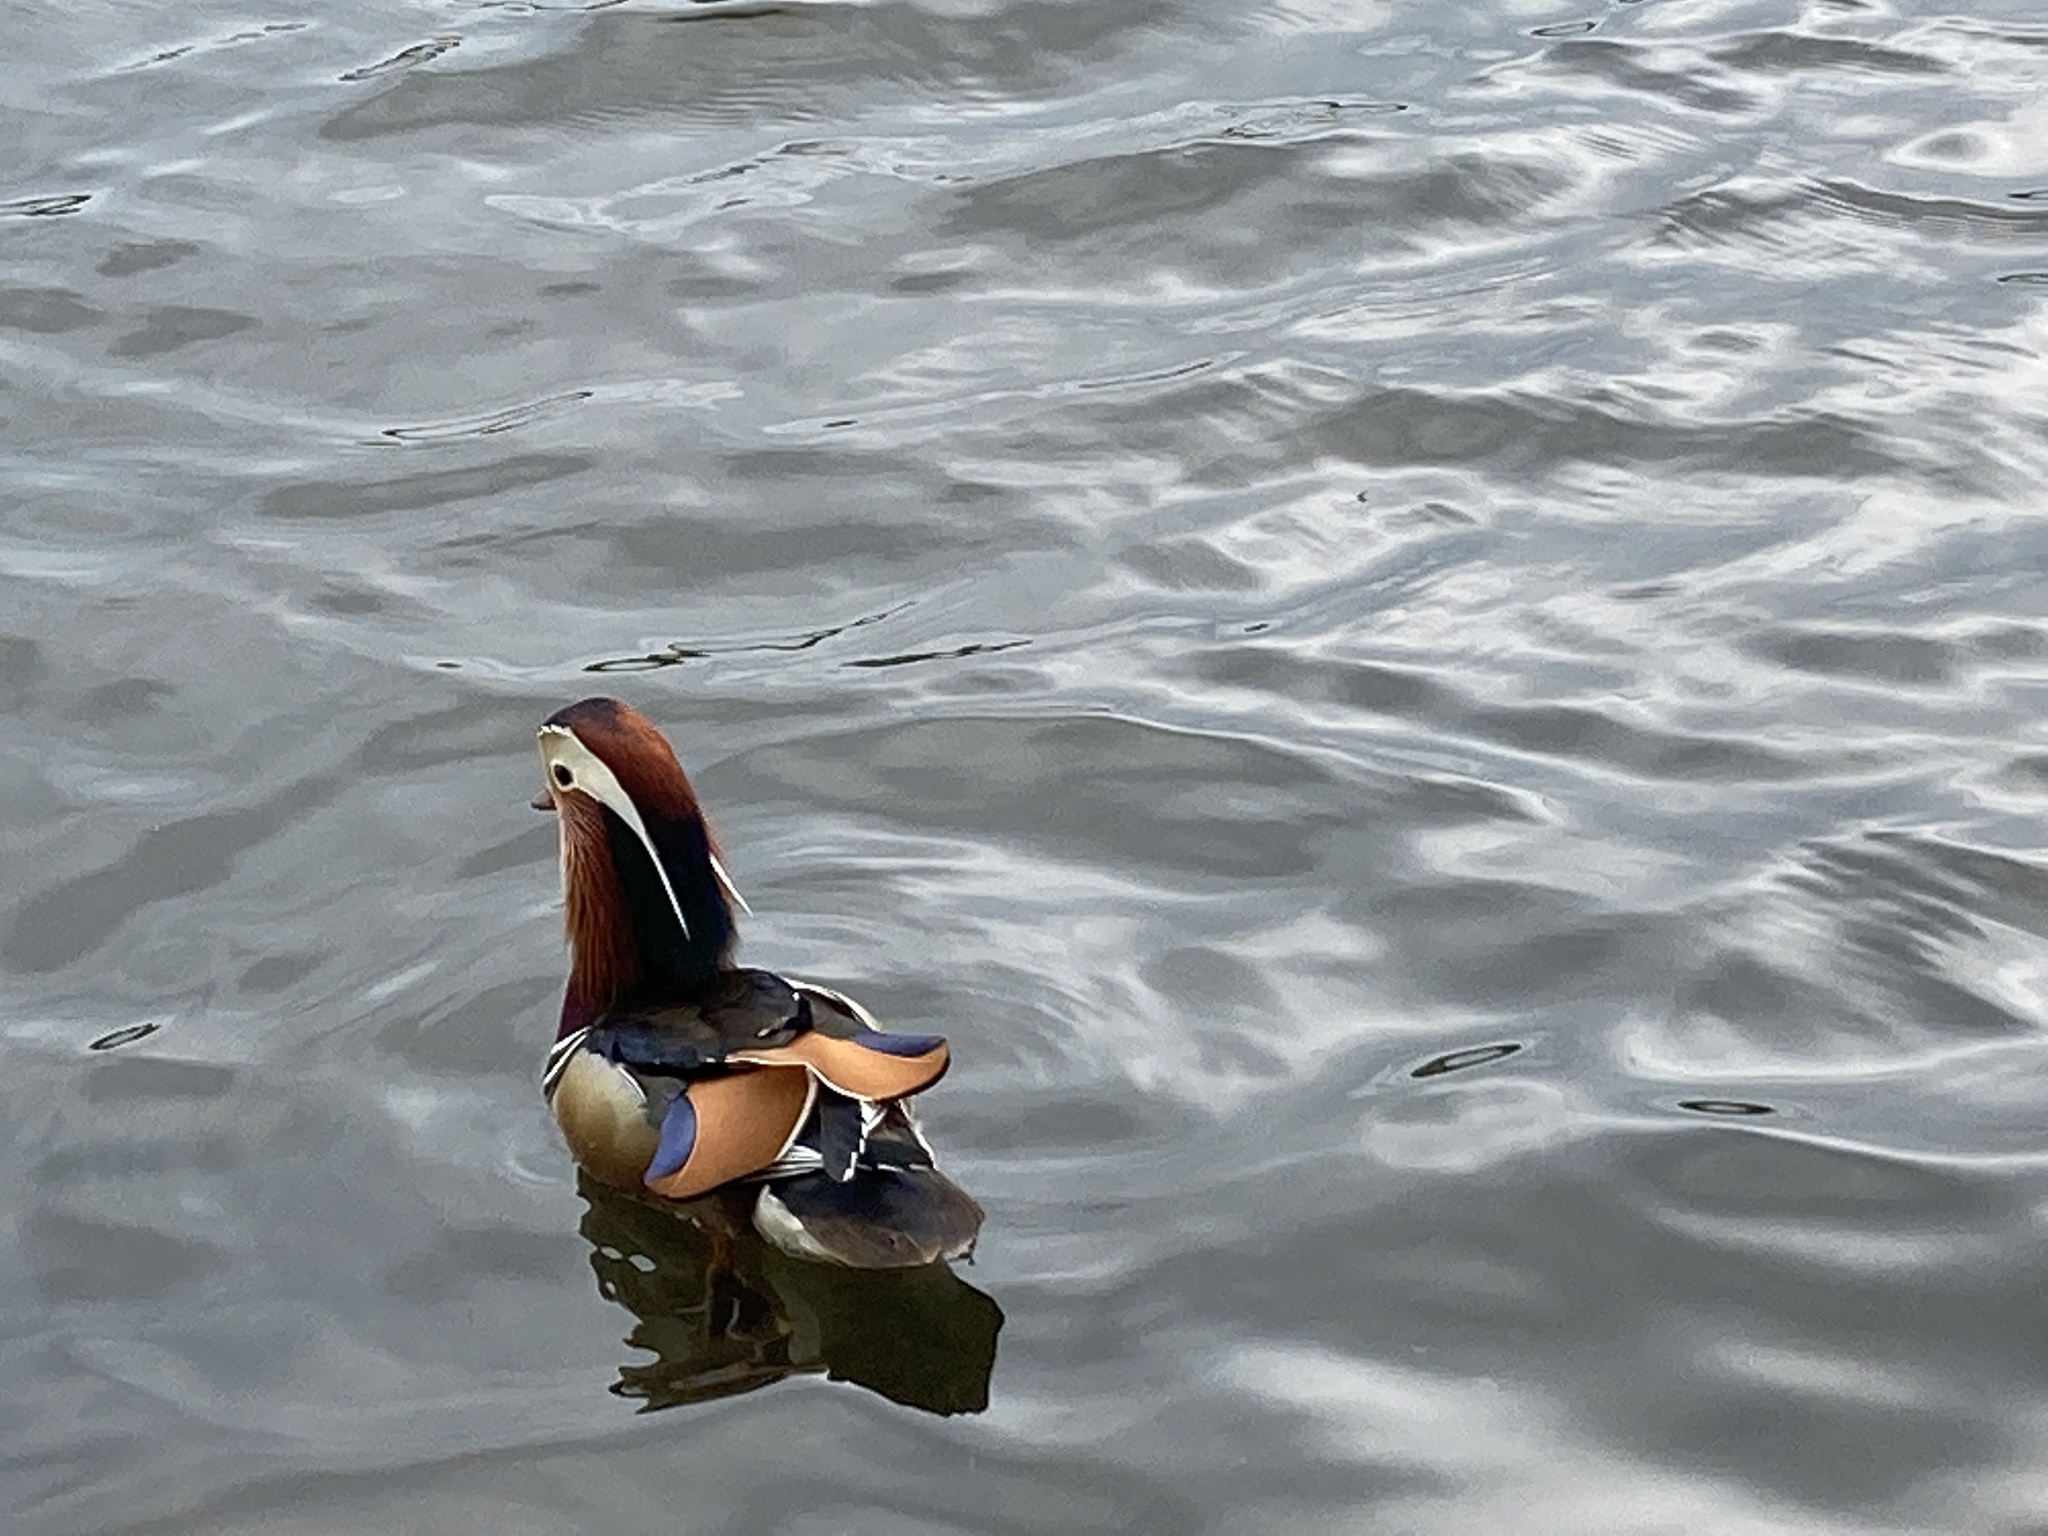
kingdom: Animalia
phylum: Chordata
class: Aves
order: Anseriformes
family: Anatidae
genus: Aix
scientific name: Aix galericulata
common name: Mandarin duck
